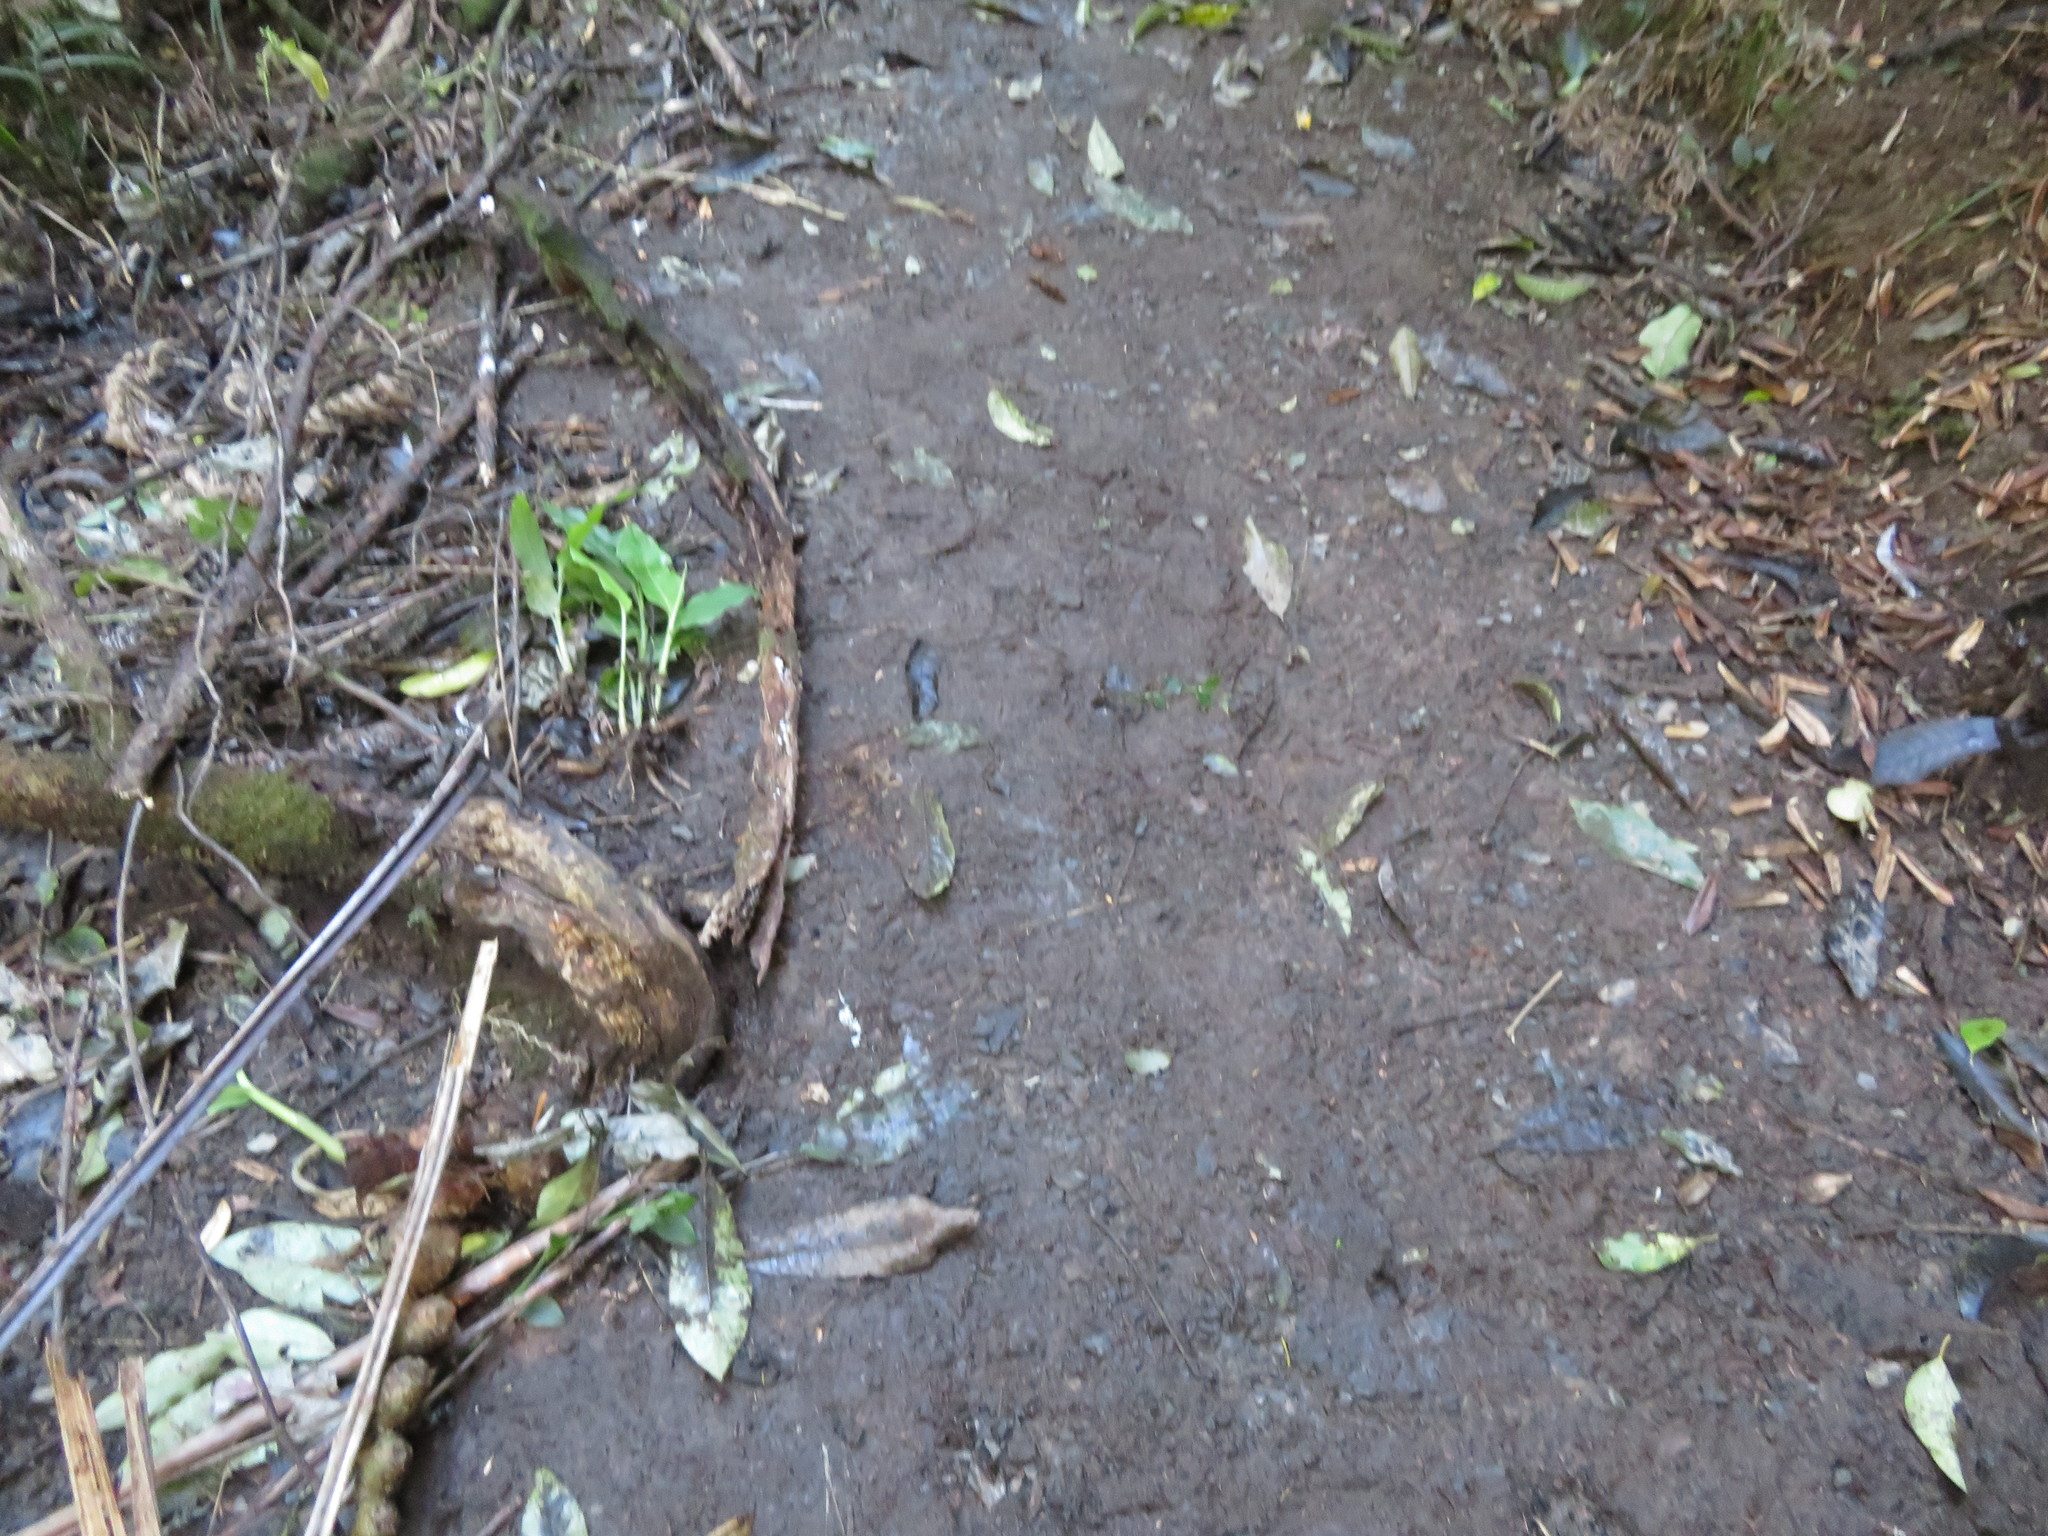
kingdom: Plantae
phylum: Tracheophyta
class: Liliopsida
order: Zingiberales
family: Zingiberaceae
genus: Hedychium
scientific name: Hedychium gardnerianum
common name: Himalayan ginger
